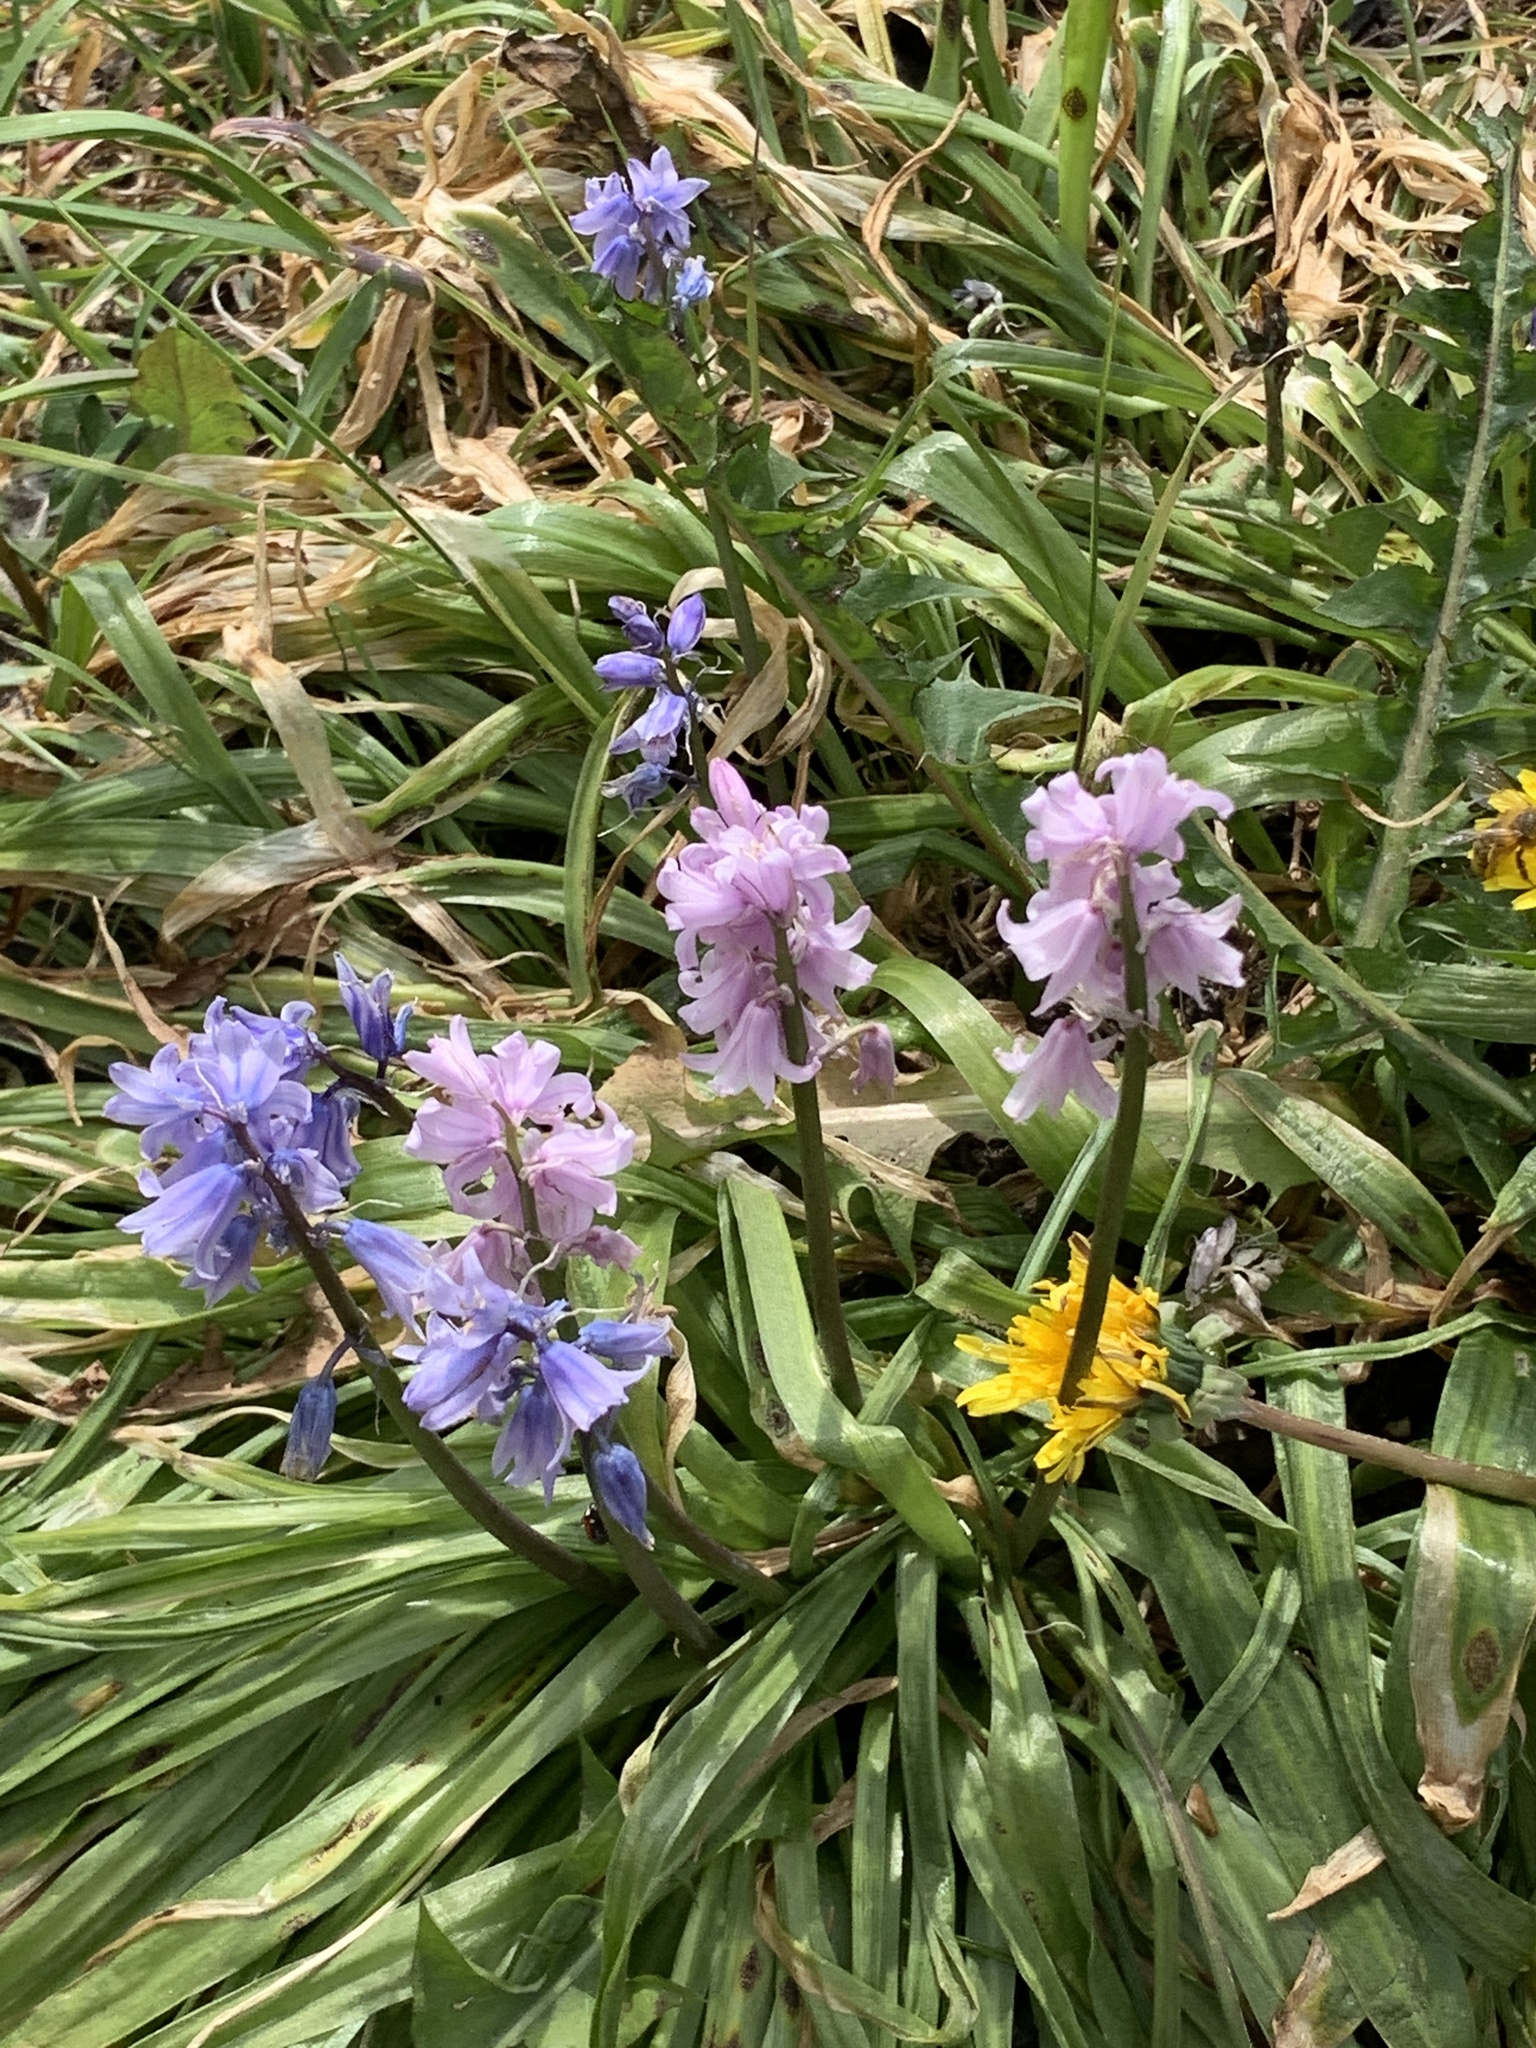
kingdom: Plantae
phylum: Tracheophyta
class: Liliopsida
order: Asparagales
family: Asparagaceae
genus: Hyacinthoides
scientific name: Hyacinthoides massartiana
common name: Hyacinthoides
